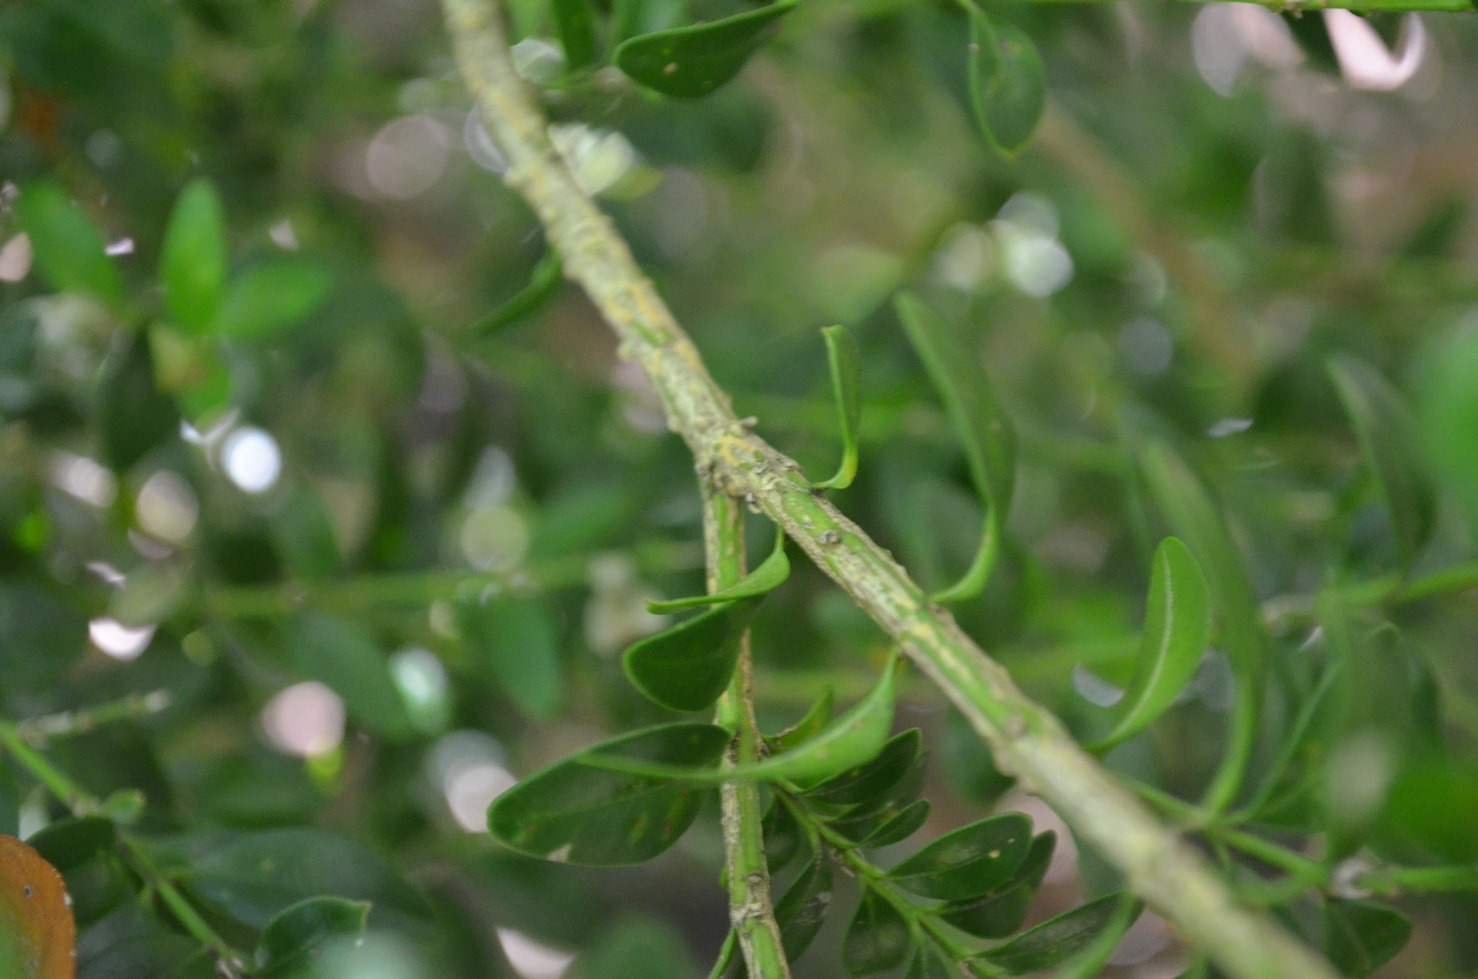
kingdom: Plantae
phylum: Tracheophyta
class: Magnoliopsida
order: Buxales
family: Buxaceae
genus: Buxus
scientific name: Buxus sempervirens
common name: Box
